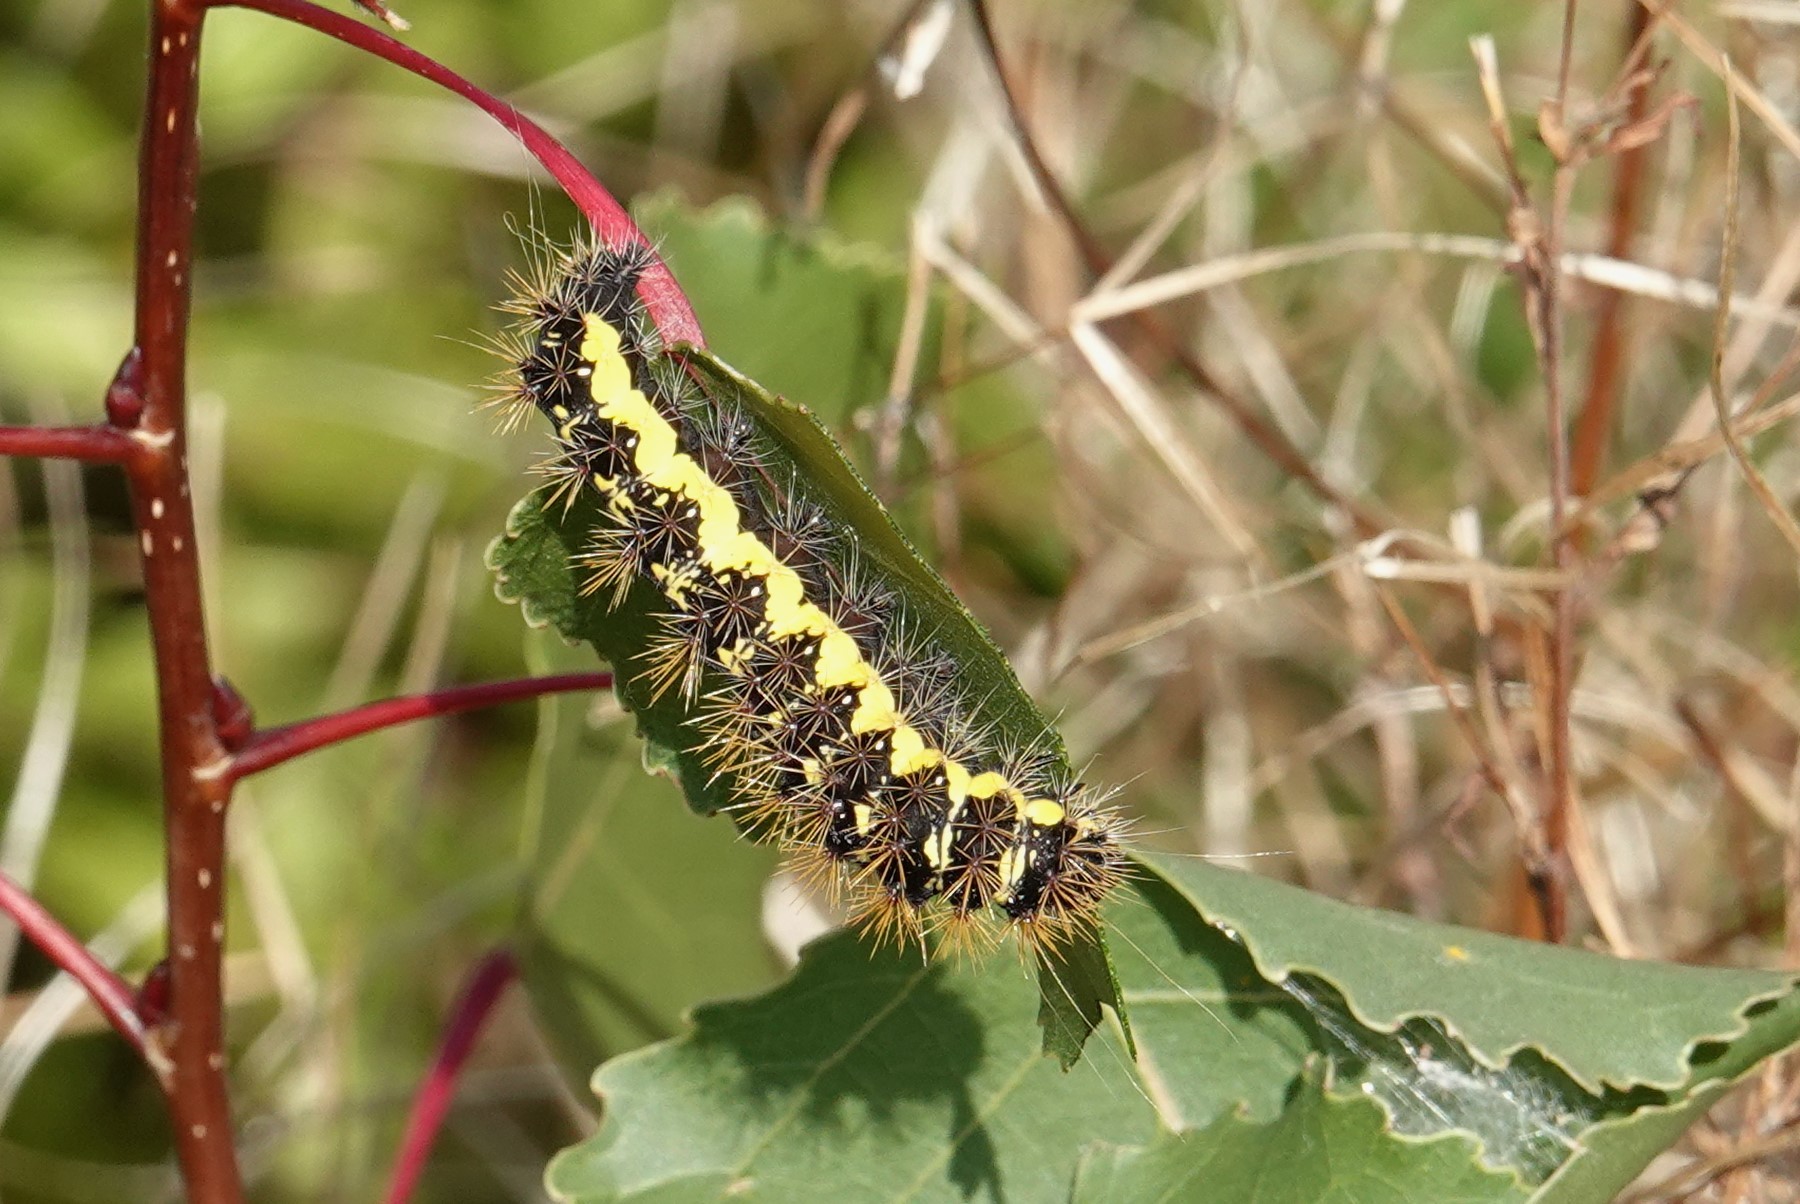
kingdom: Animalia
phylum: Arthropoda
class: Insecta
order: Lepidoptera
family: Noctuidae
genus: Acronicta
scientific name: Acronicta oblinita
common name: Smeared dagger
